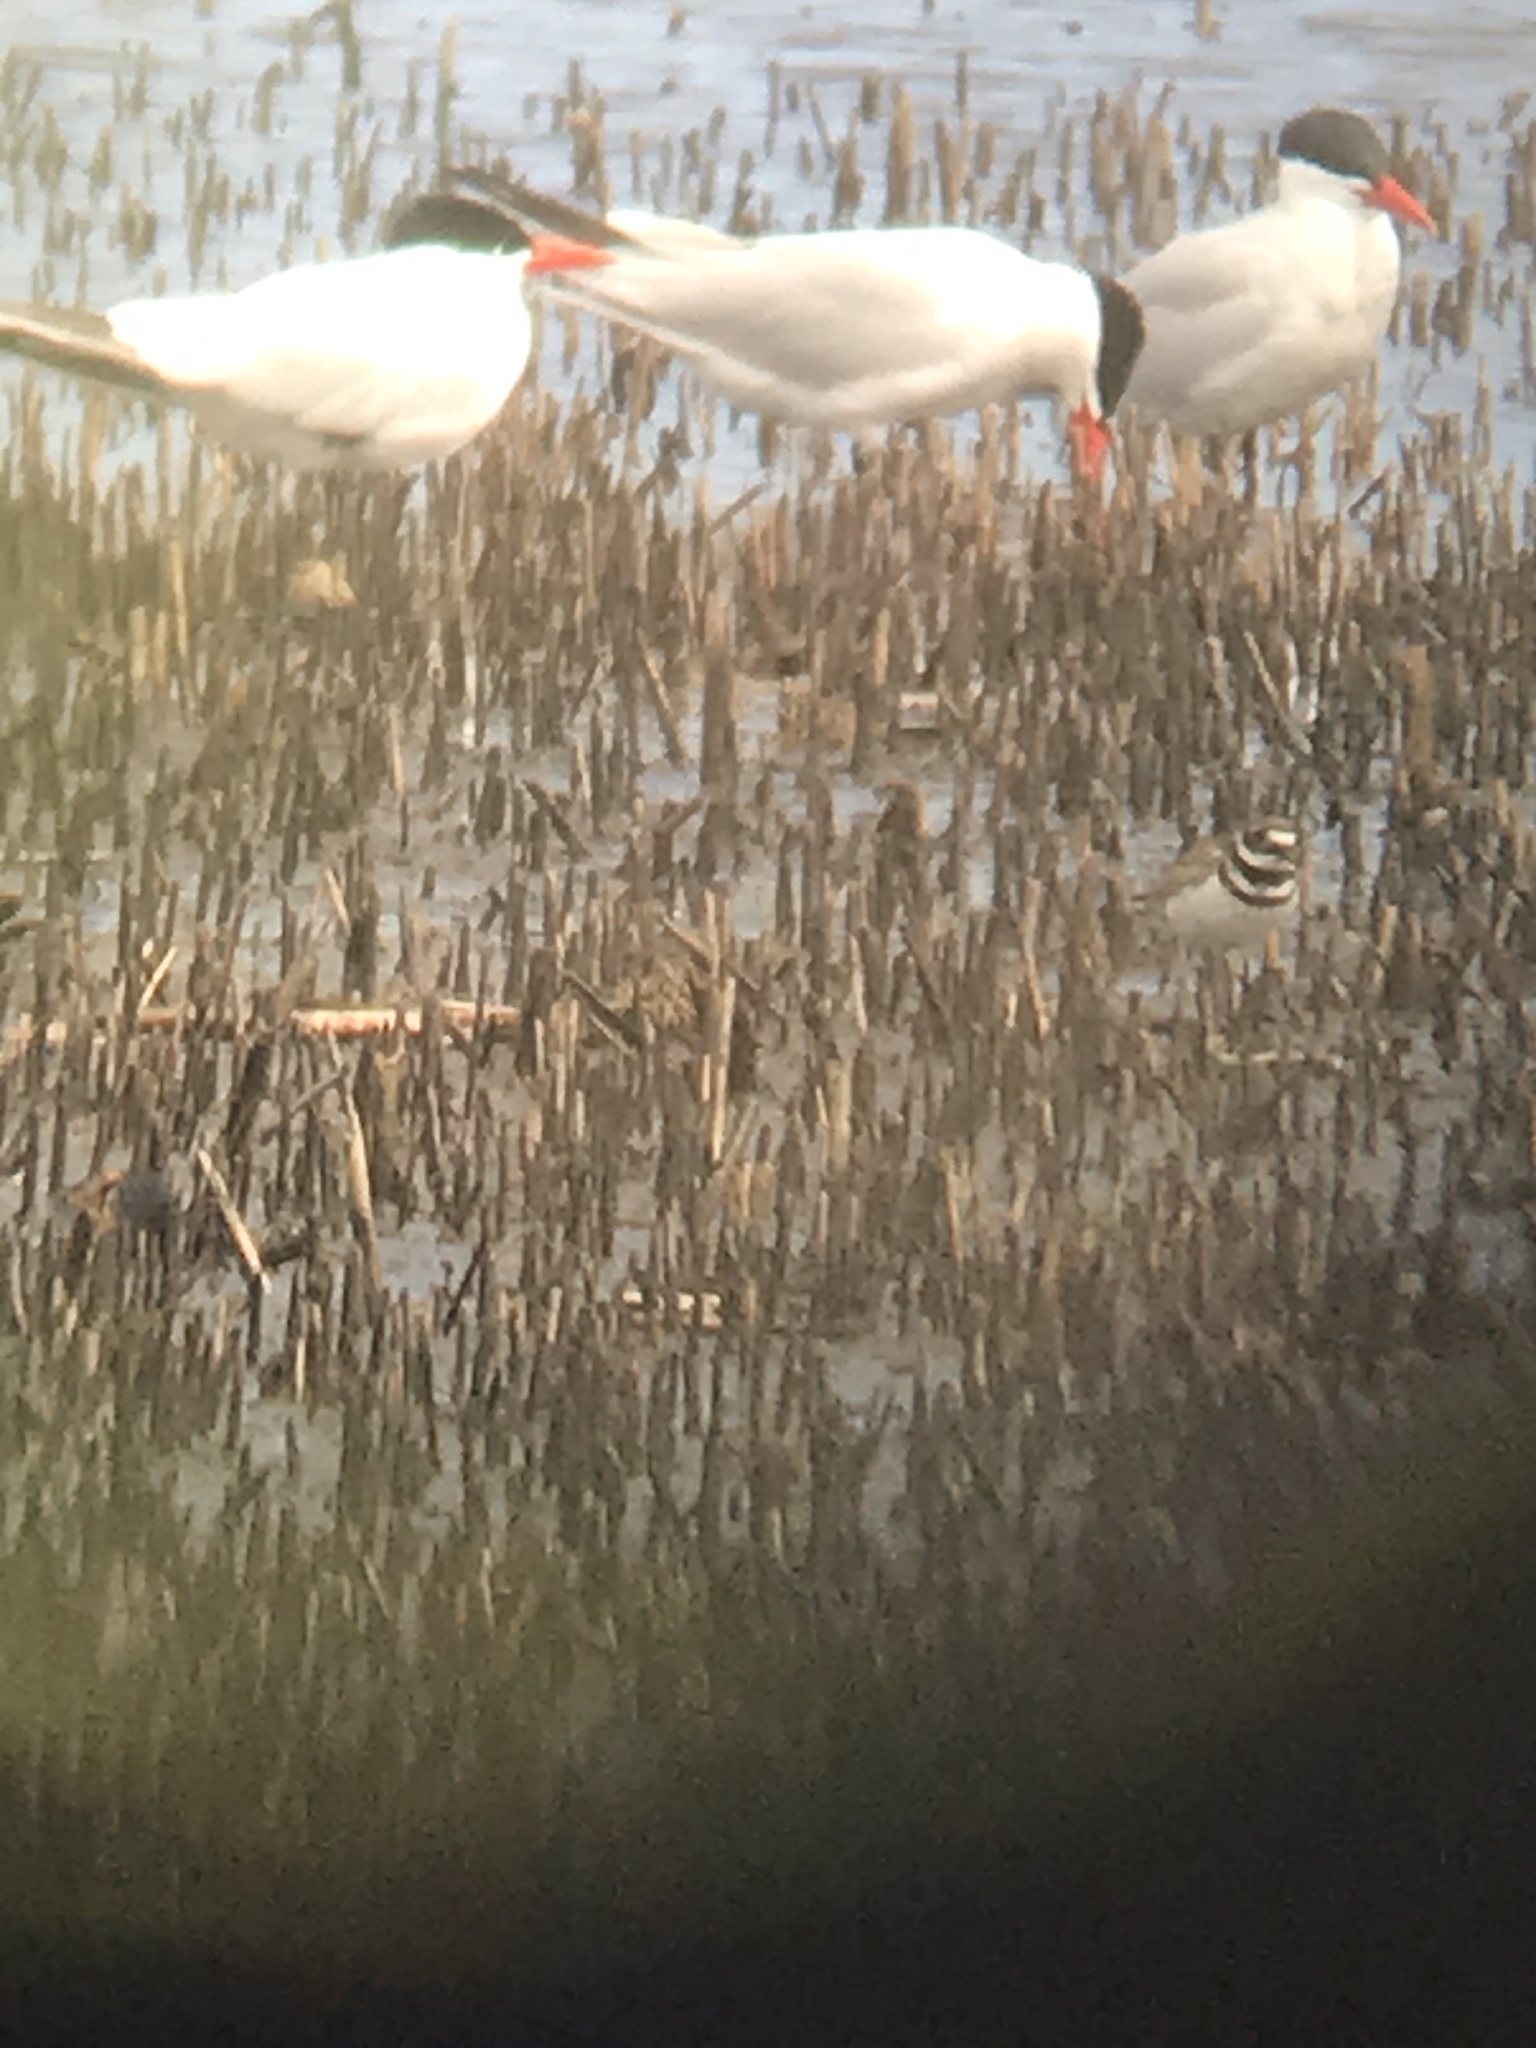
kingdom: Animalia
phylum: Chordata
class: Aves
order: Charadriiformes
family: Charadriidae
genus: Charadrius
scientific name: Charadrius vociferus
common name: Killdeer
